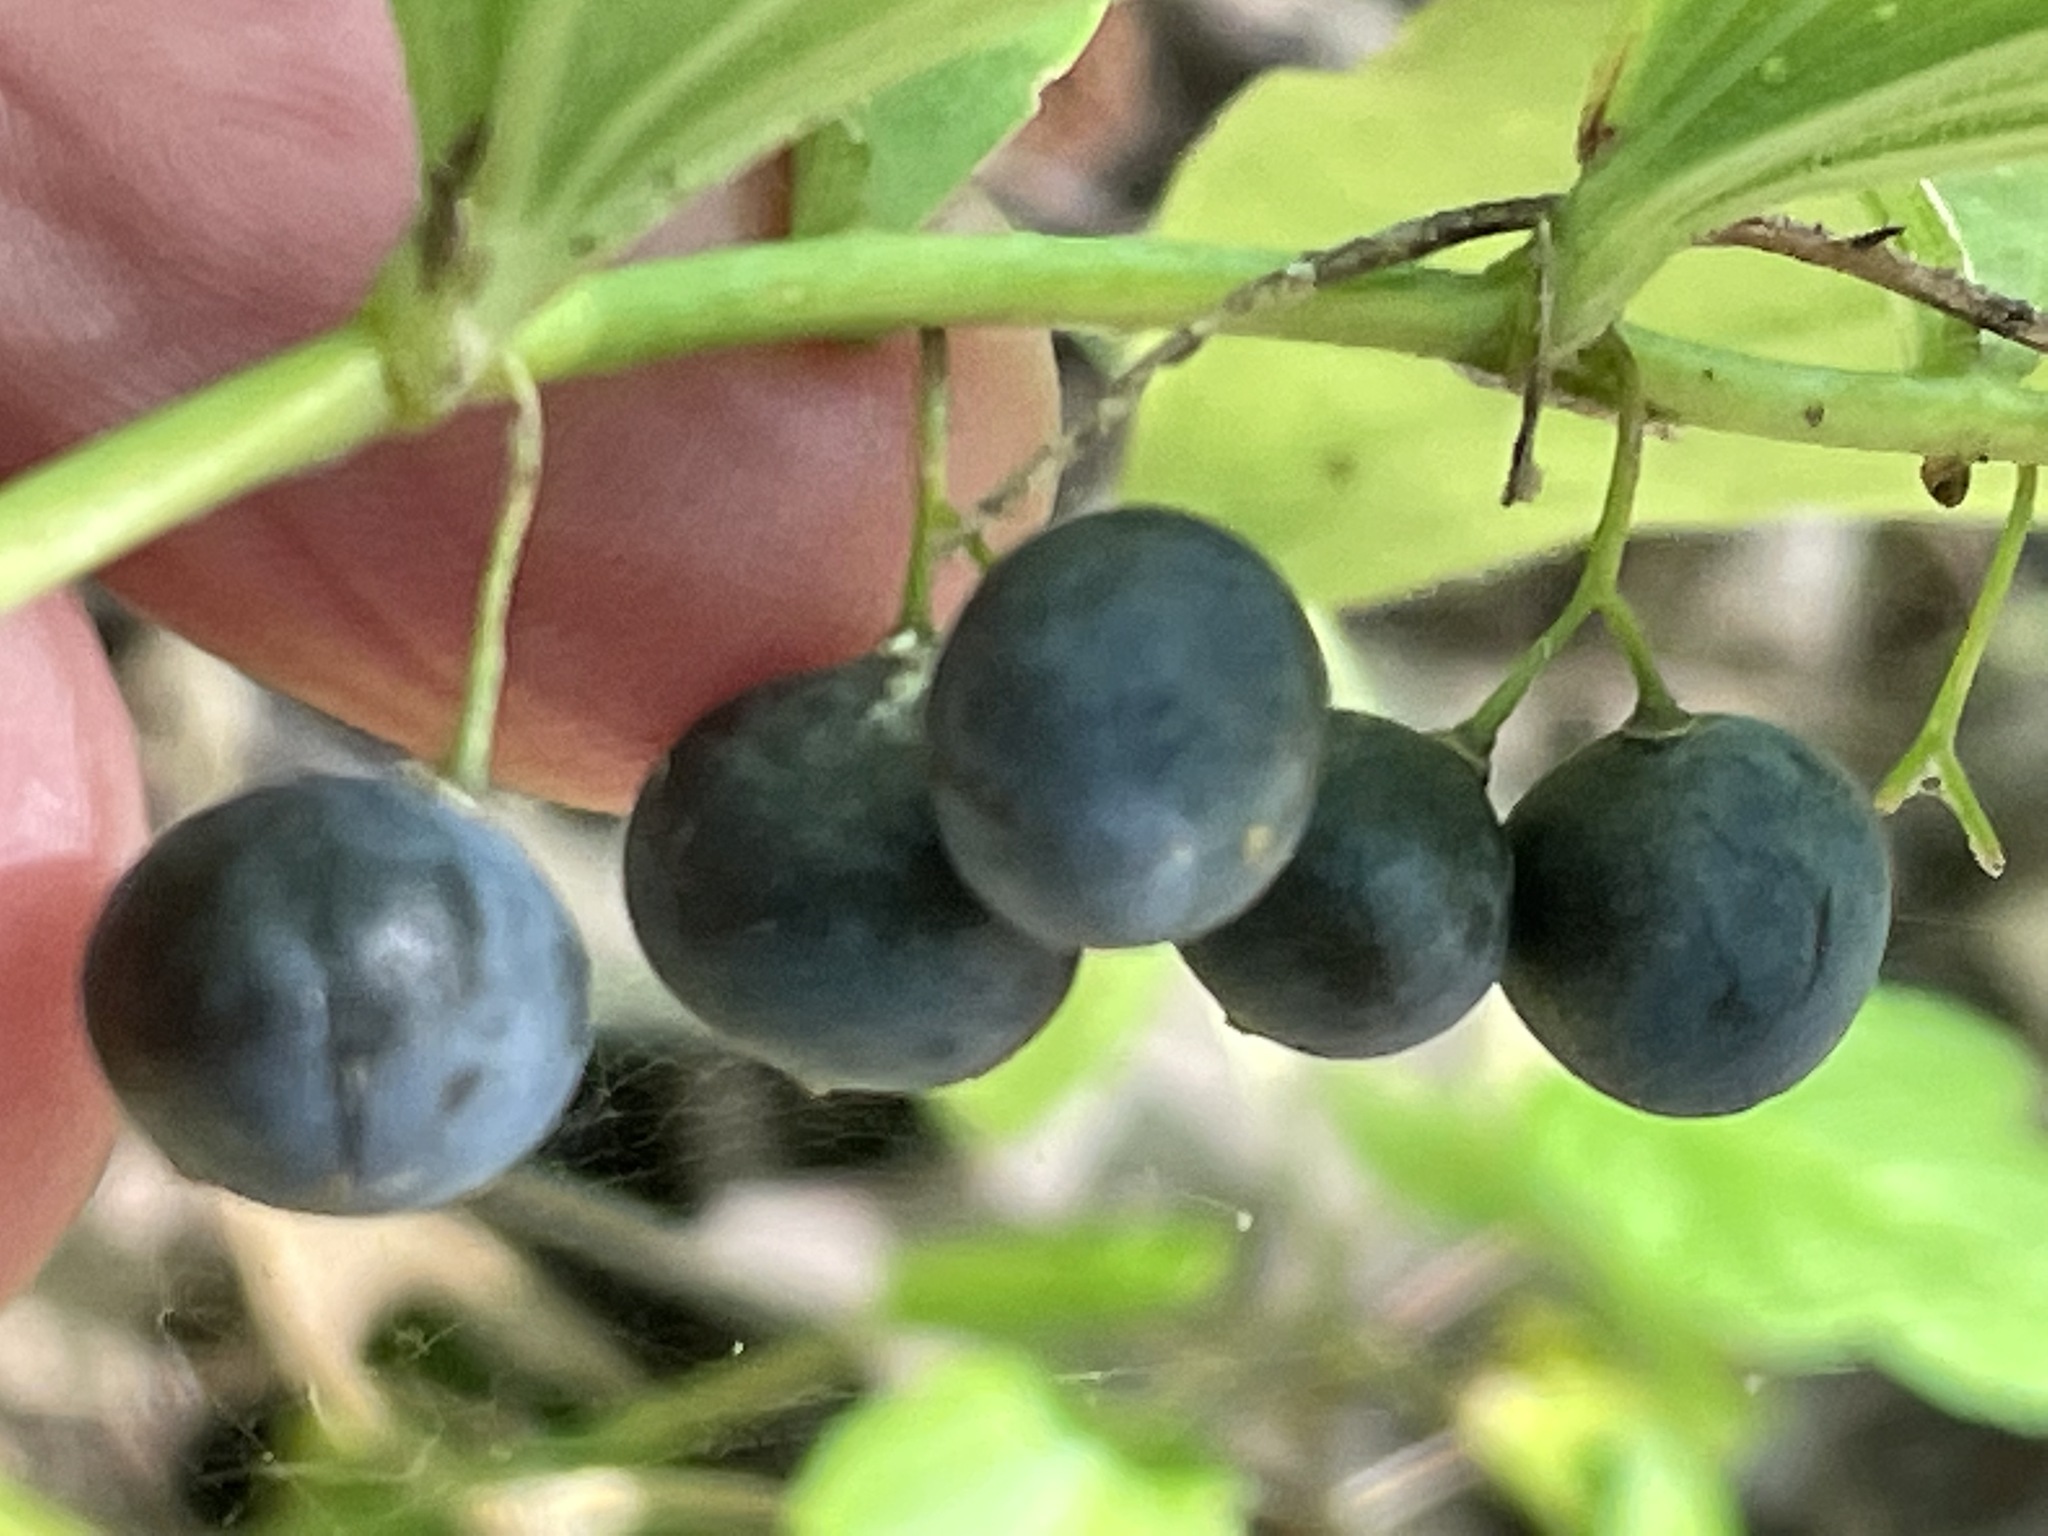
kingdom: Plantae
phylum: Tracheophyta
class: Liliopsida
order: Asparagales
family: Asparagaceae
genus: Polygonatum
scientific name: Polygonatum pubescens
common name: Downy solomon's seal
